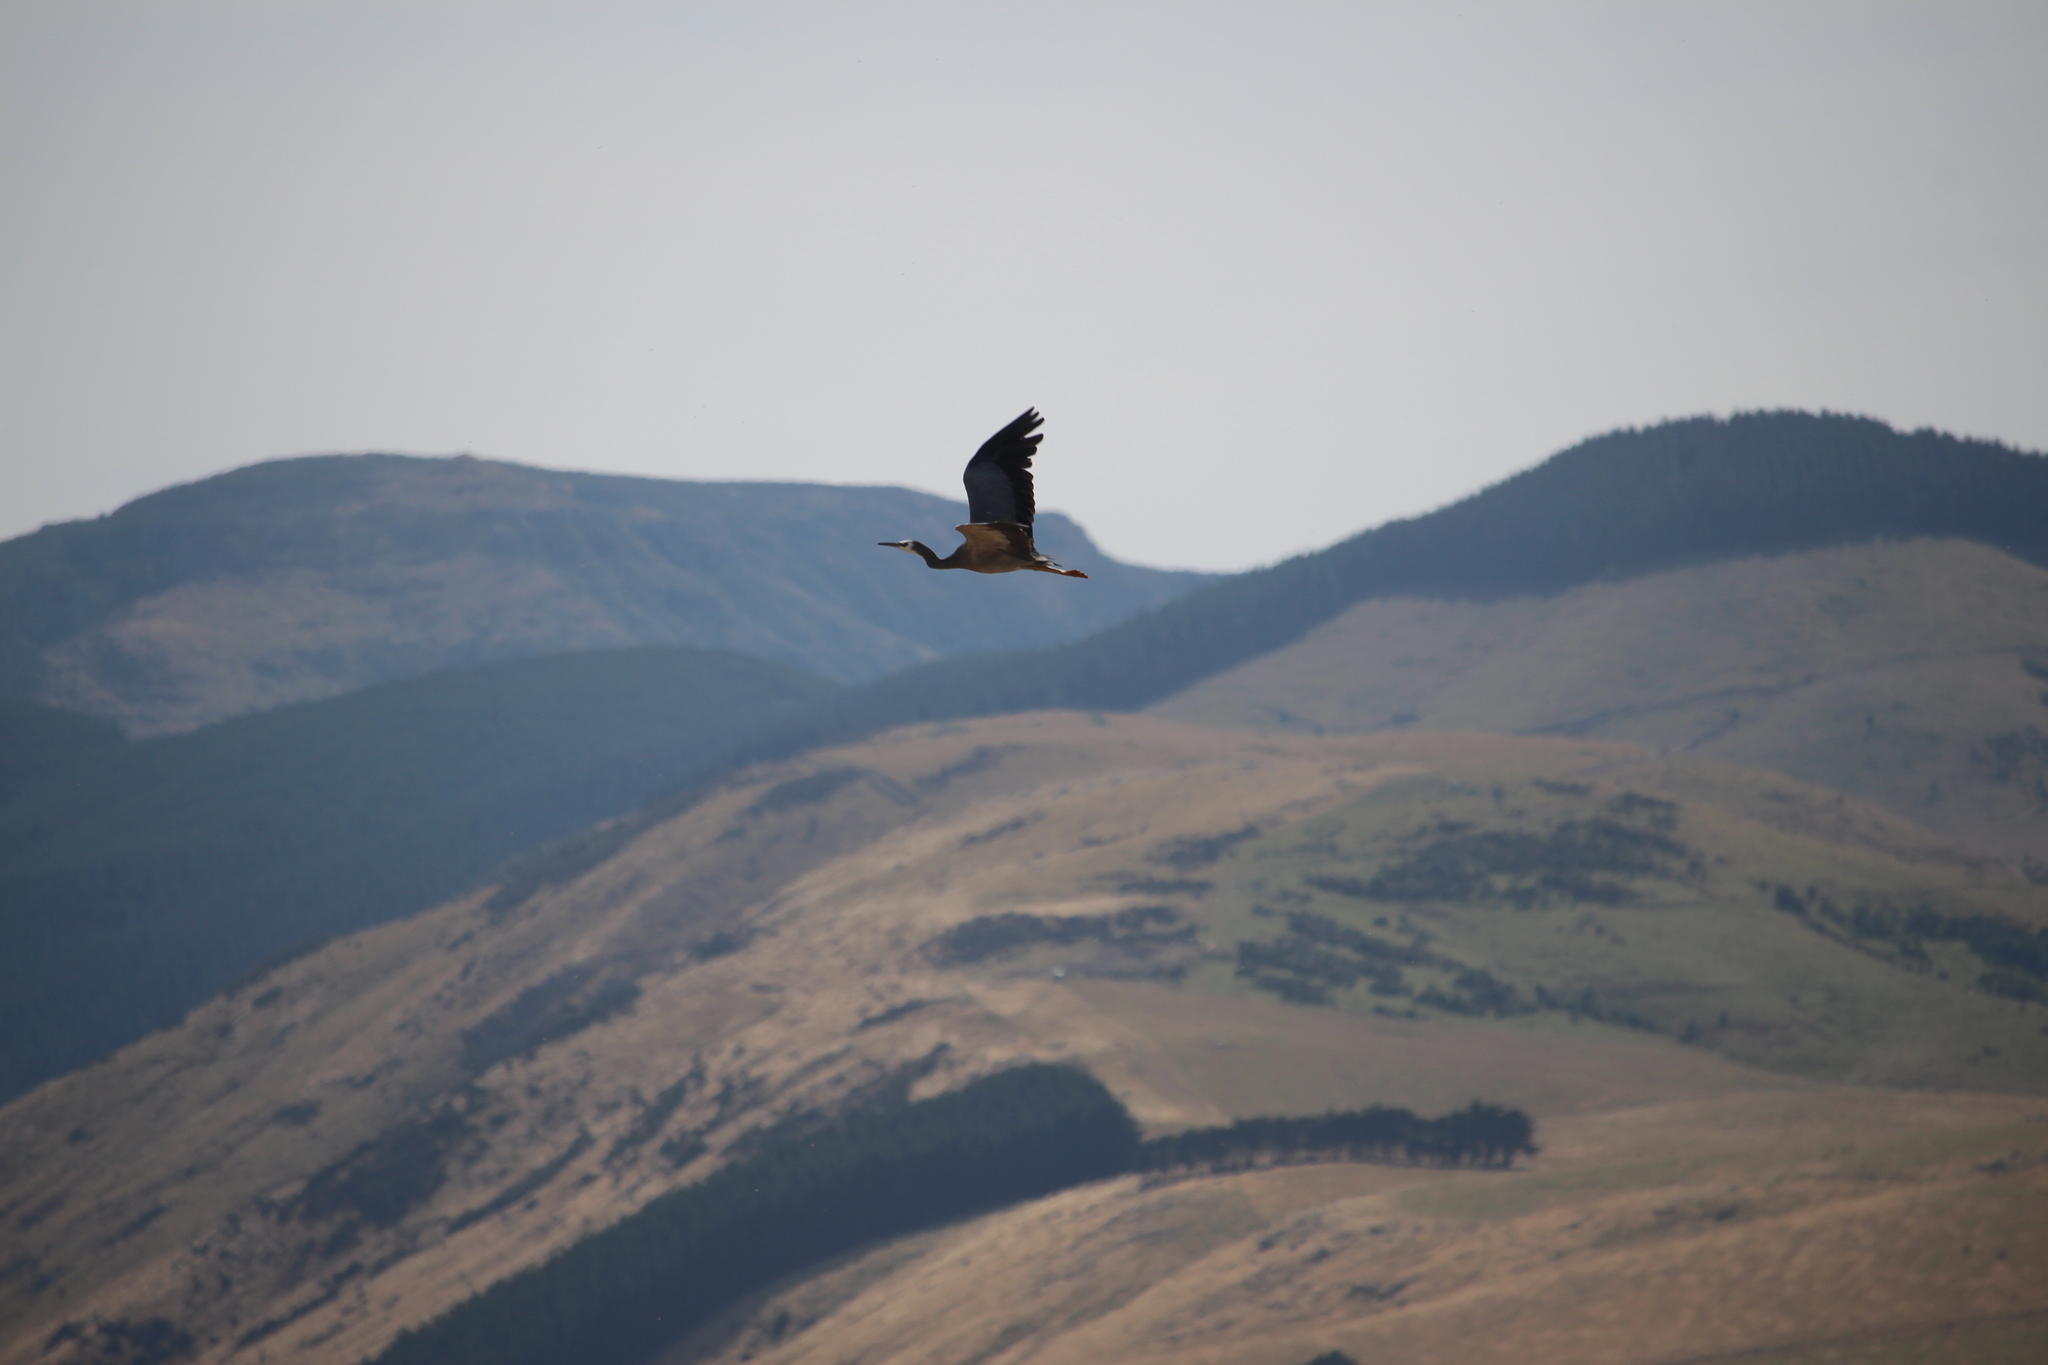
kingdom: Animalia
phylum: Chordata
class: Aves
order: Pelecaniformes
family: Ardeidae
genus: Egretta
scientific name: Egretta novaehollandiae
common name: White-faced heron
